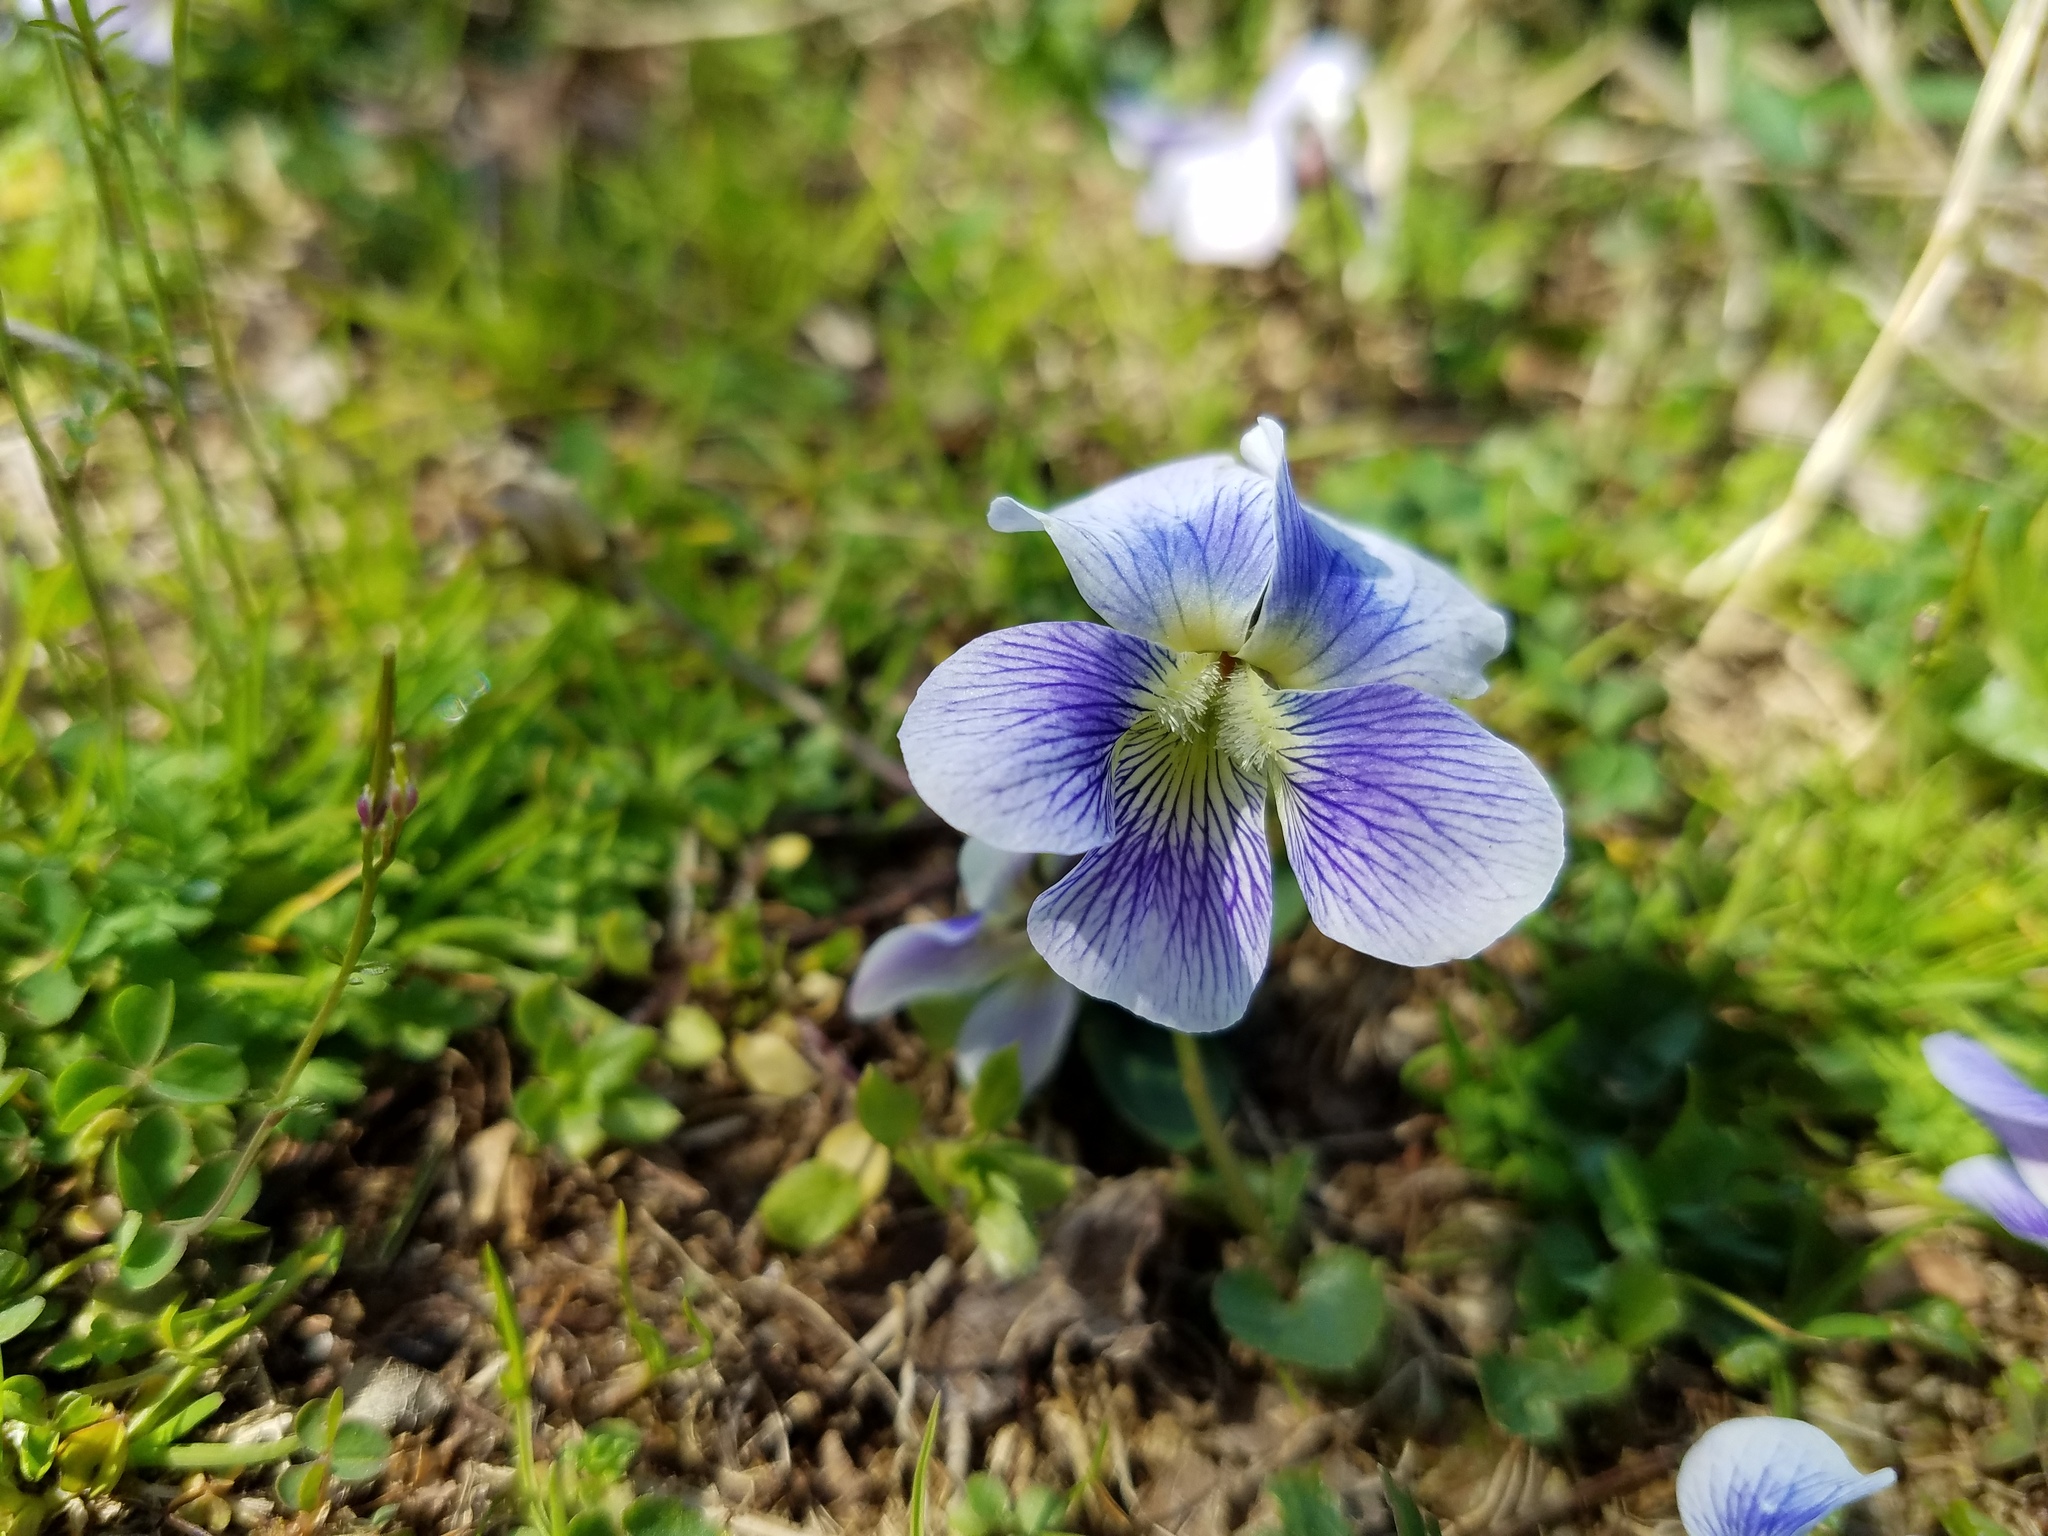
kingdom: Plantae
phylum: Tracheophyta
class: Magnoliopsida
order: Malpighiales
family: Violaceae
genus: Viola
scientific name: Viola sororia
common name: Dooryard violet
